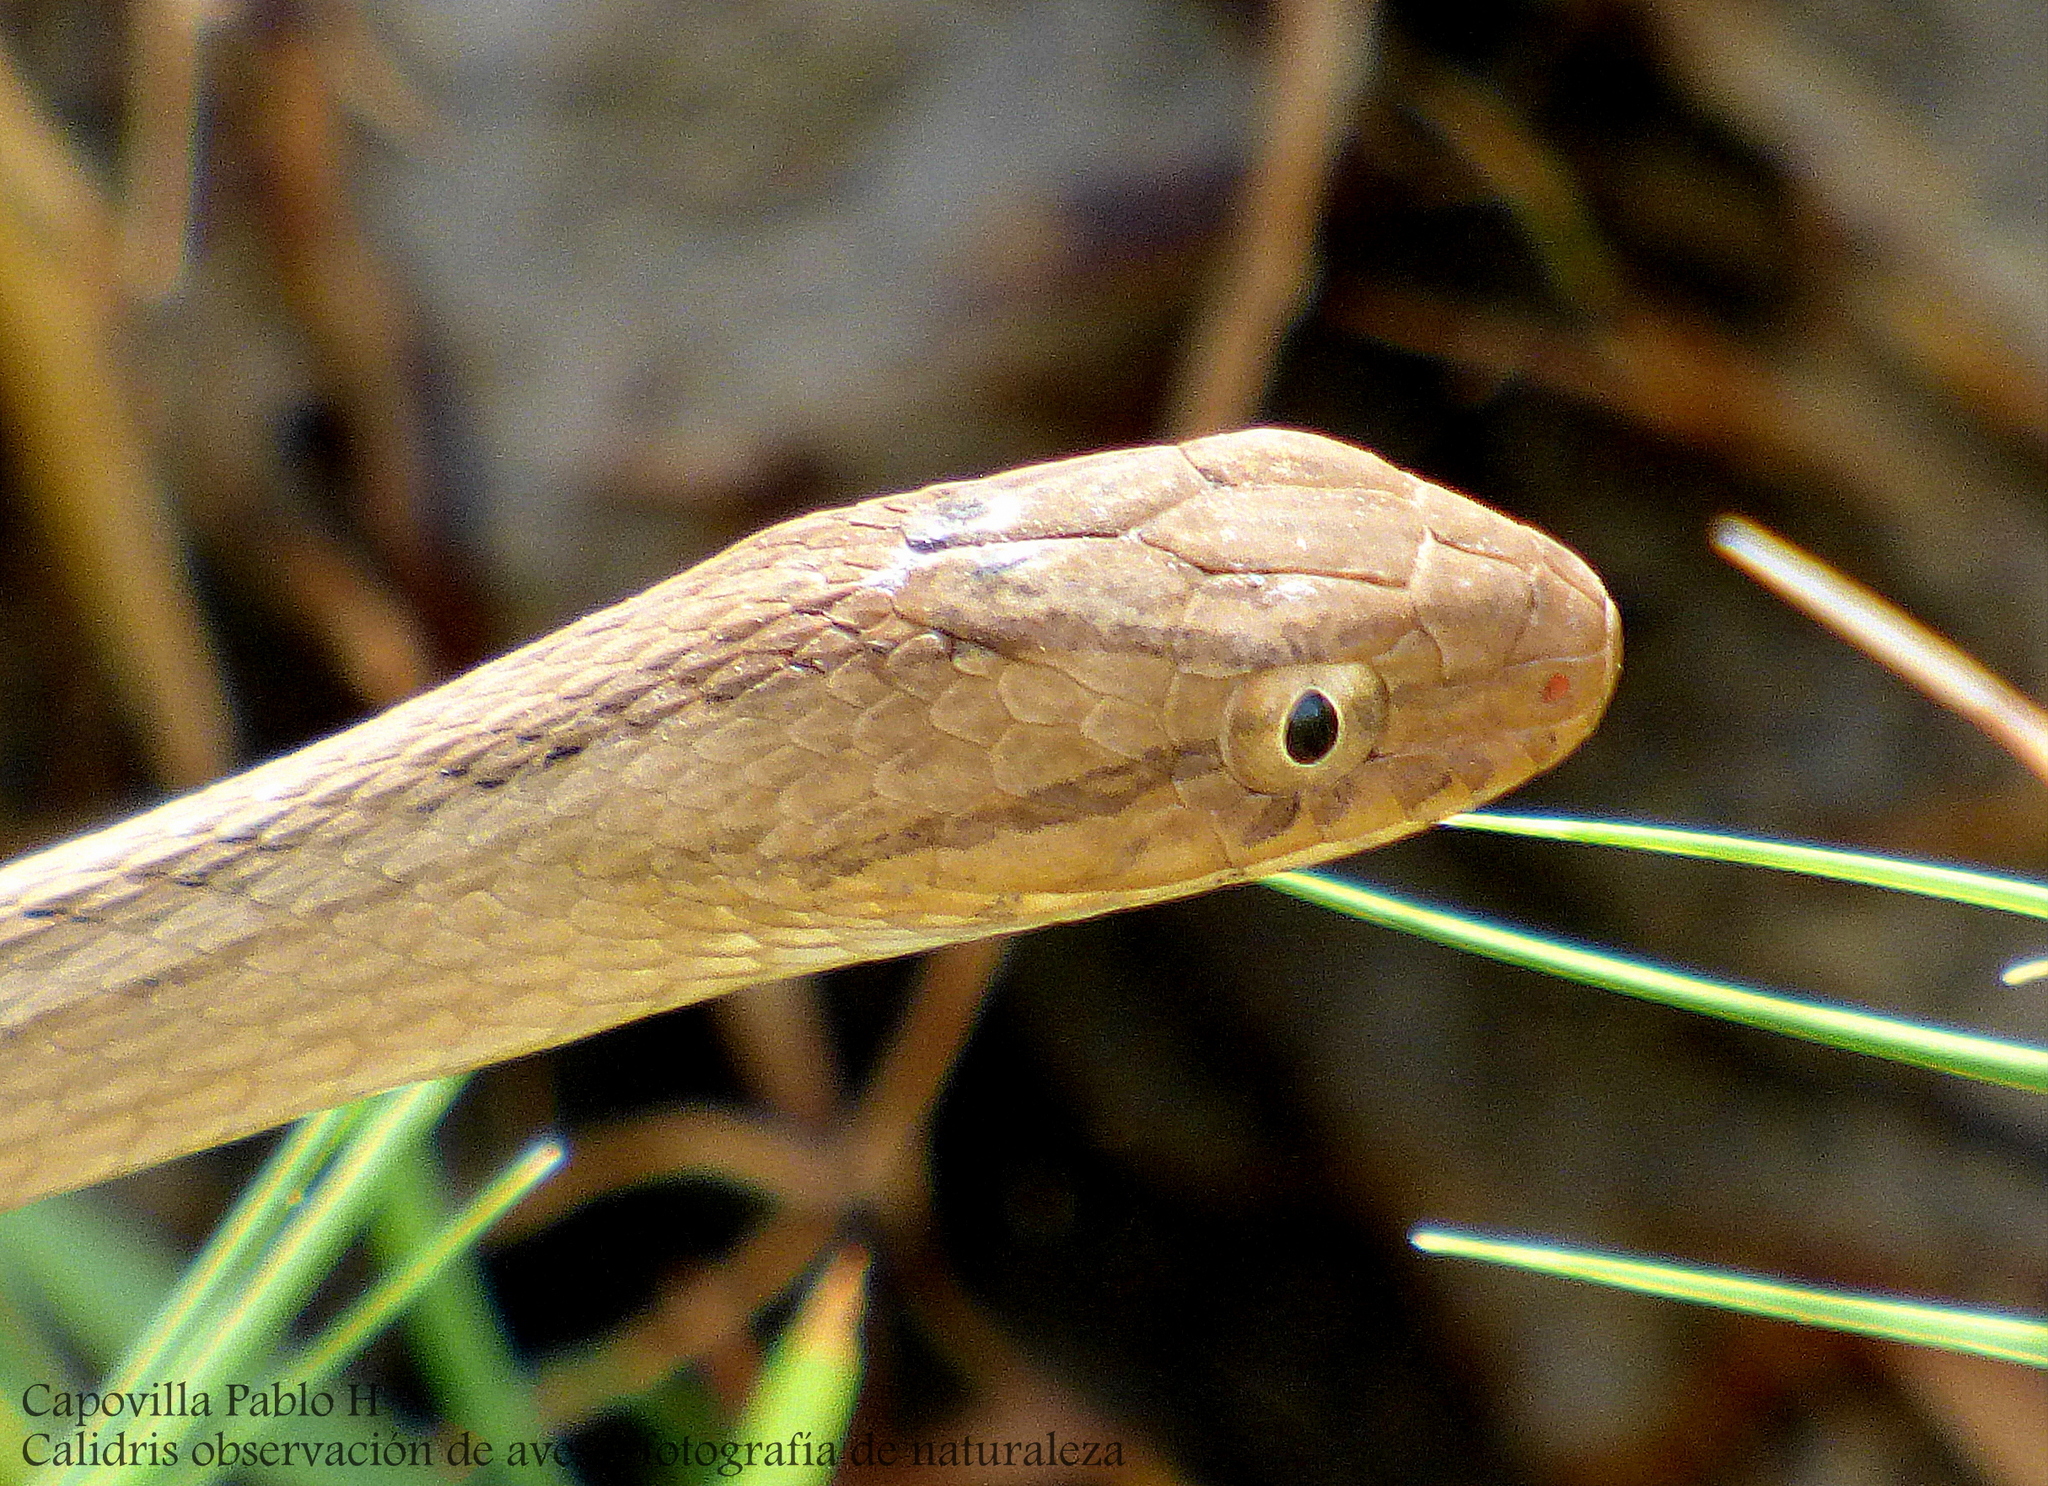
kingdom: Animalia
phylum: Chordata
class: Squamata
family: Colubridae
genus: Dryophylax
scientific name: Dryophylax
